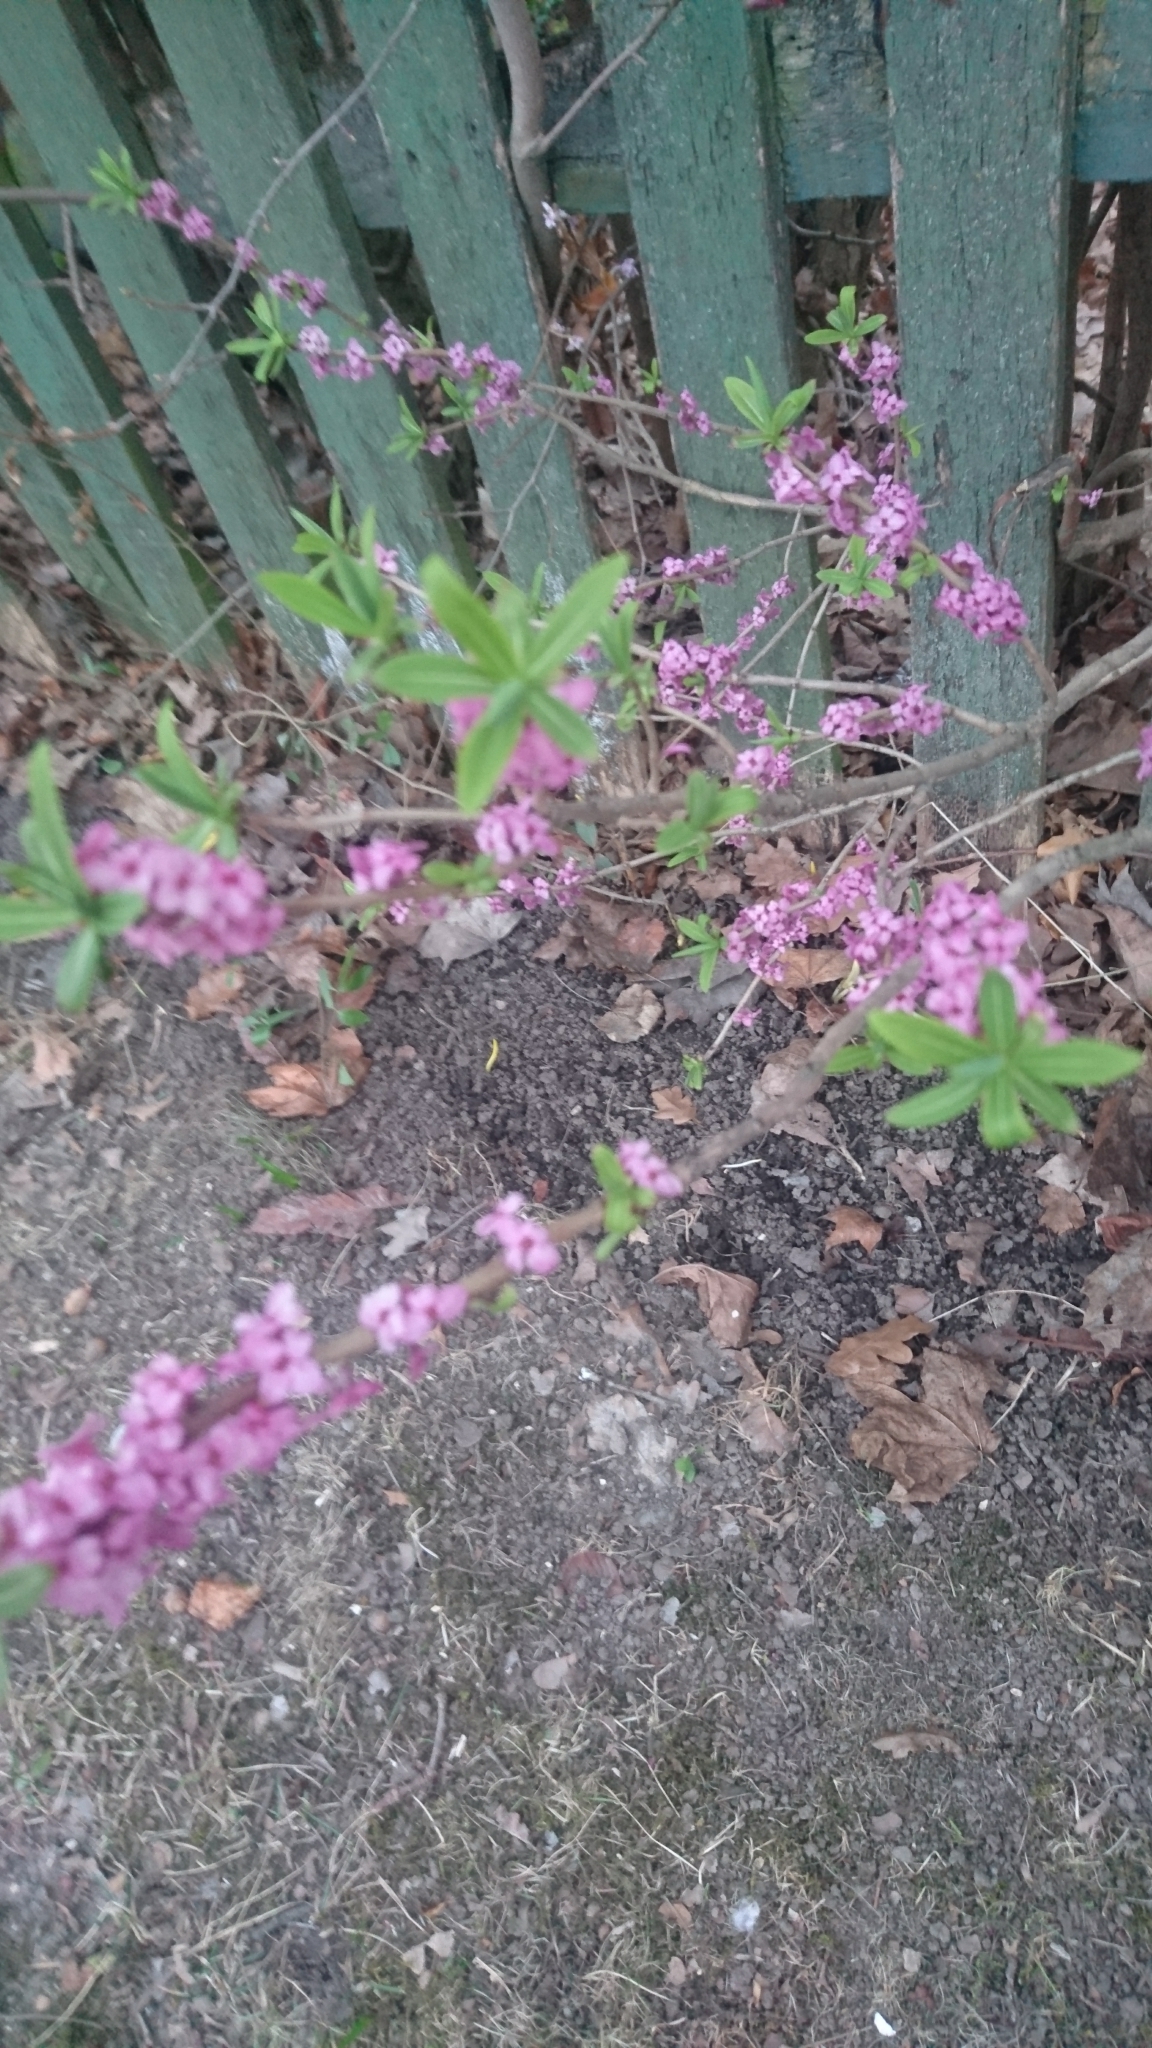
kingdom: Plantae
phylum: Tracheophyta
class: Magnoliopsida
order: Malvales
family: Thymelaeaceae
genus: Daphne
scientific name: Daphne mezereum
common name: Mezereon
